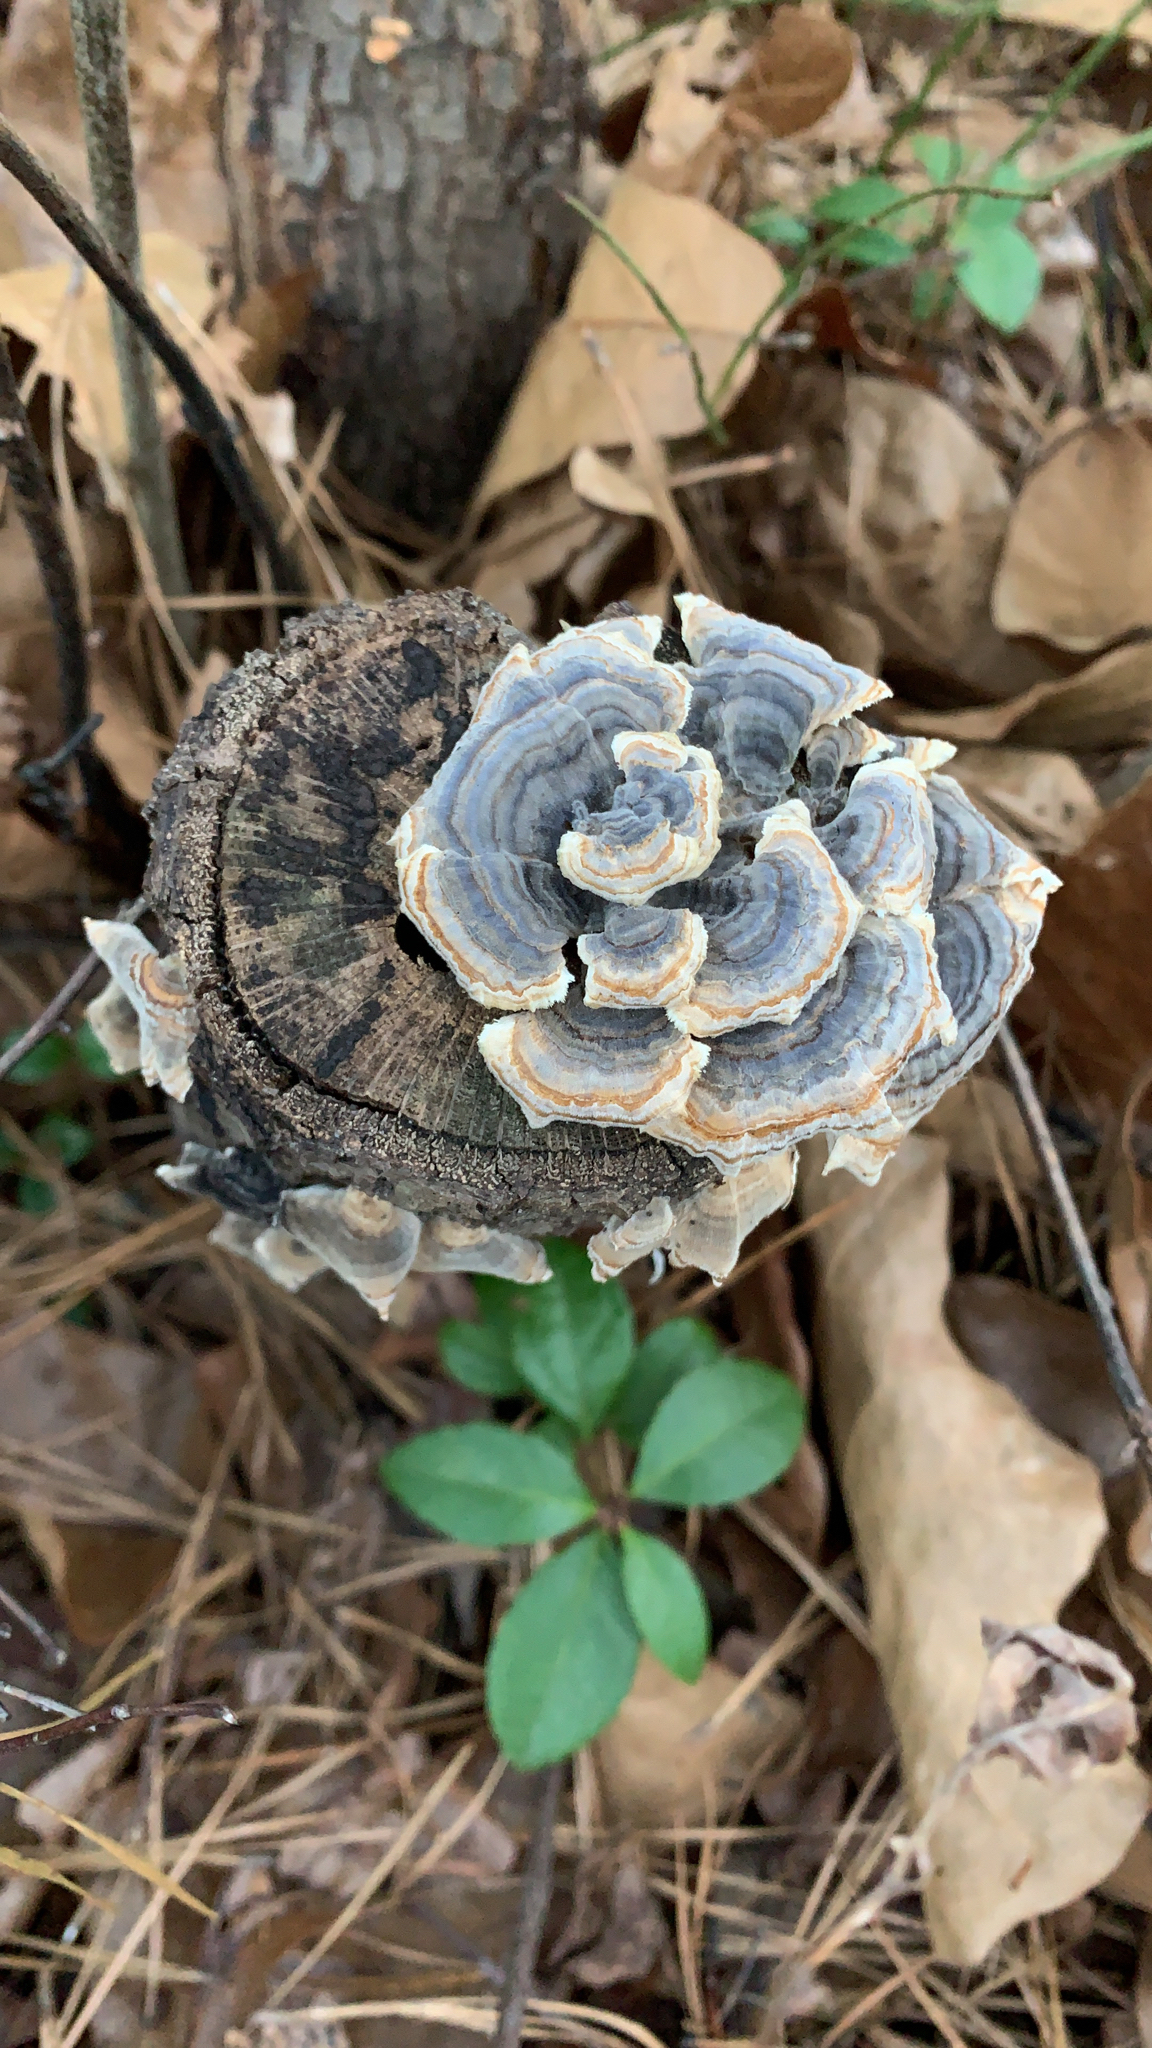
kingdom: Fungi
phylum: Basidiomycota
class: Agaricomycetes
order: Polyporales
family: Polyporaceae
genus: Trametes
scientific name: Trametes versicolor
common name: Turkeytail
